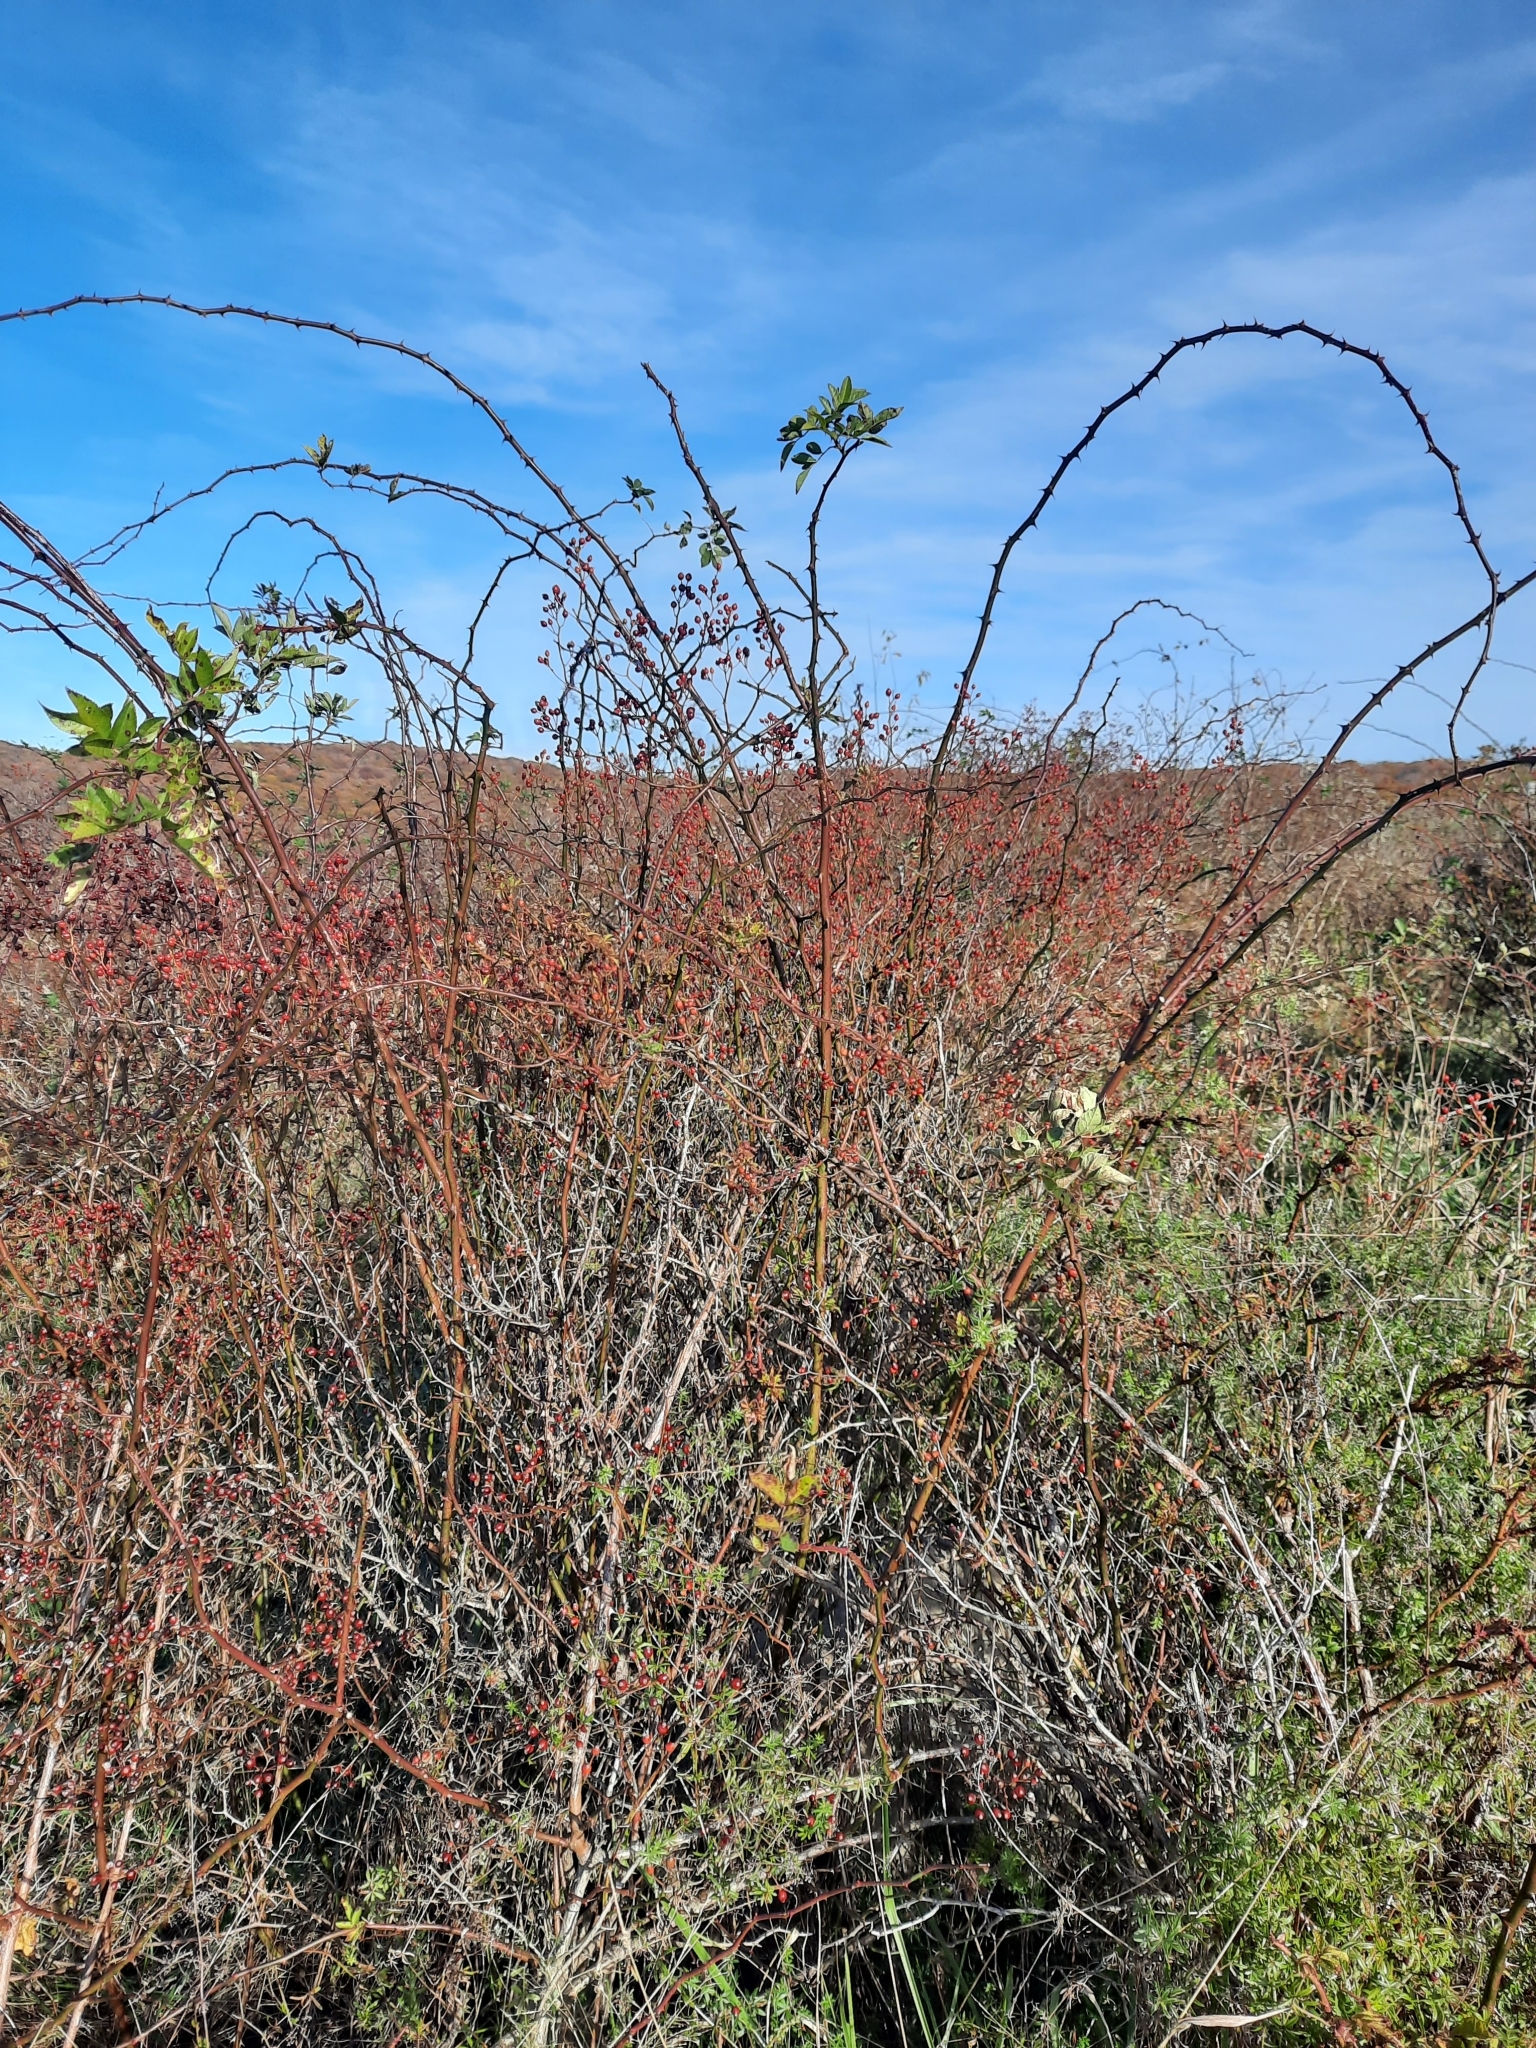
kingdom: Plantae
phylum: Tracheophyta
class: Magnoliopsida
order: Rosales
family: Rosaceae
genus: Rosa
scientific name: Rosa multiflora
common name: Multiflora rose
